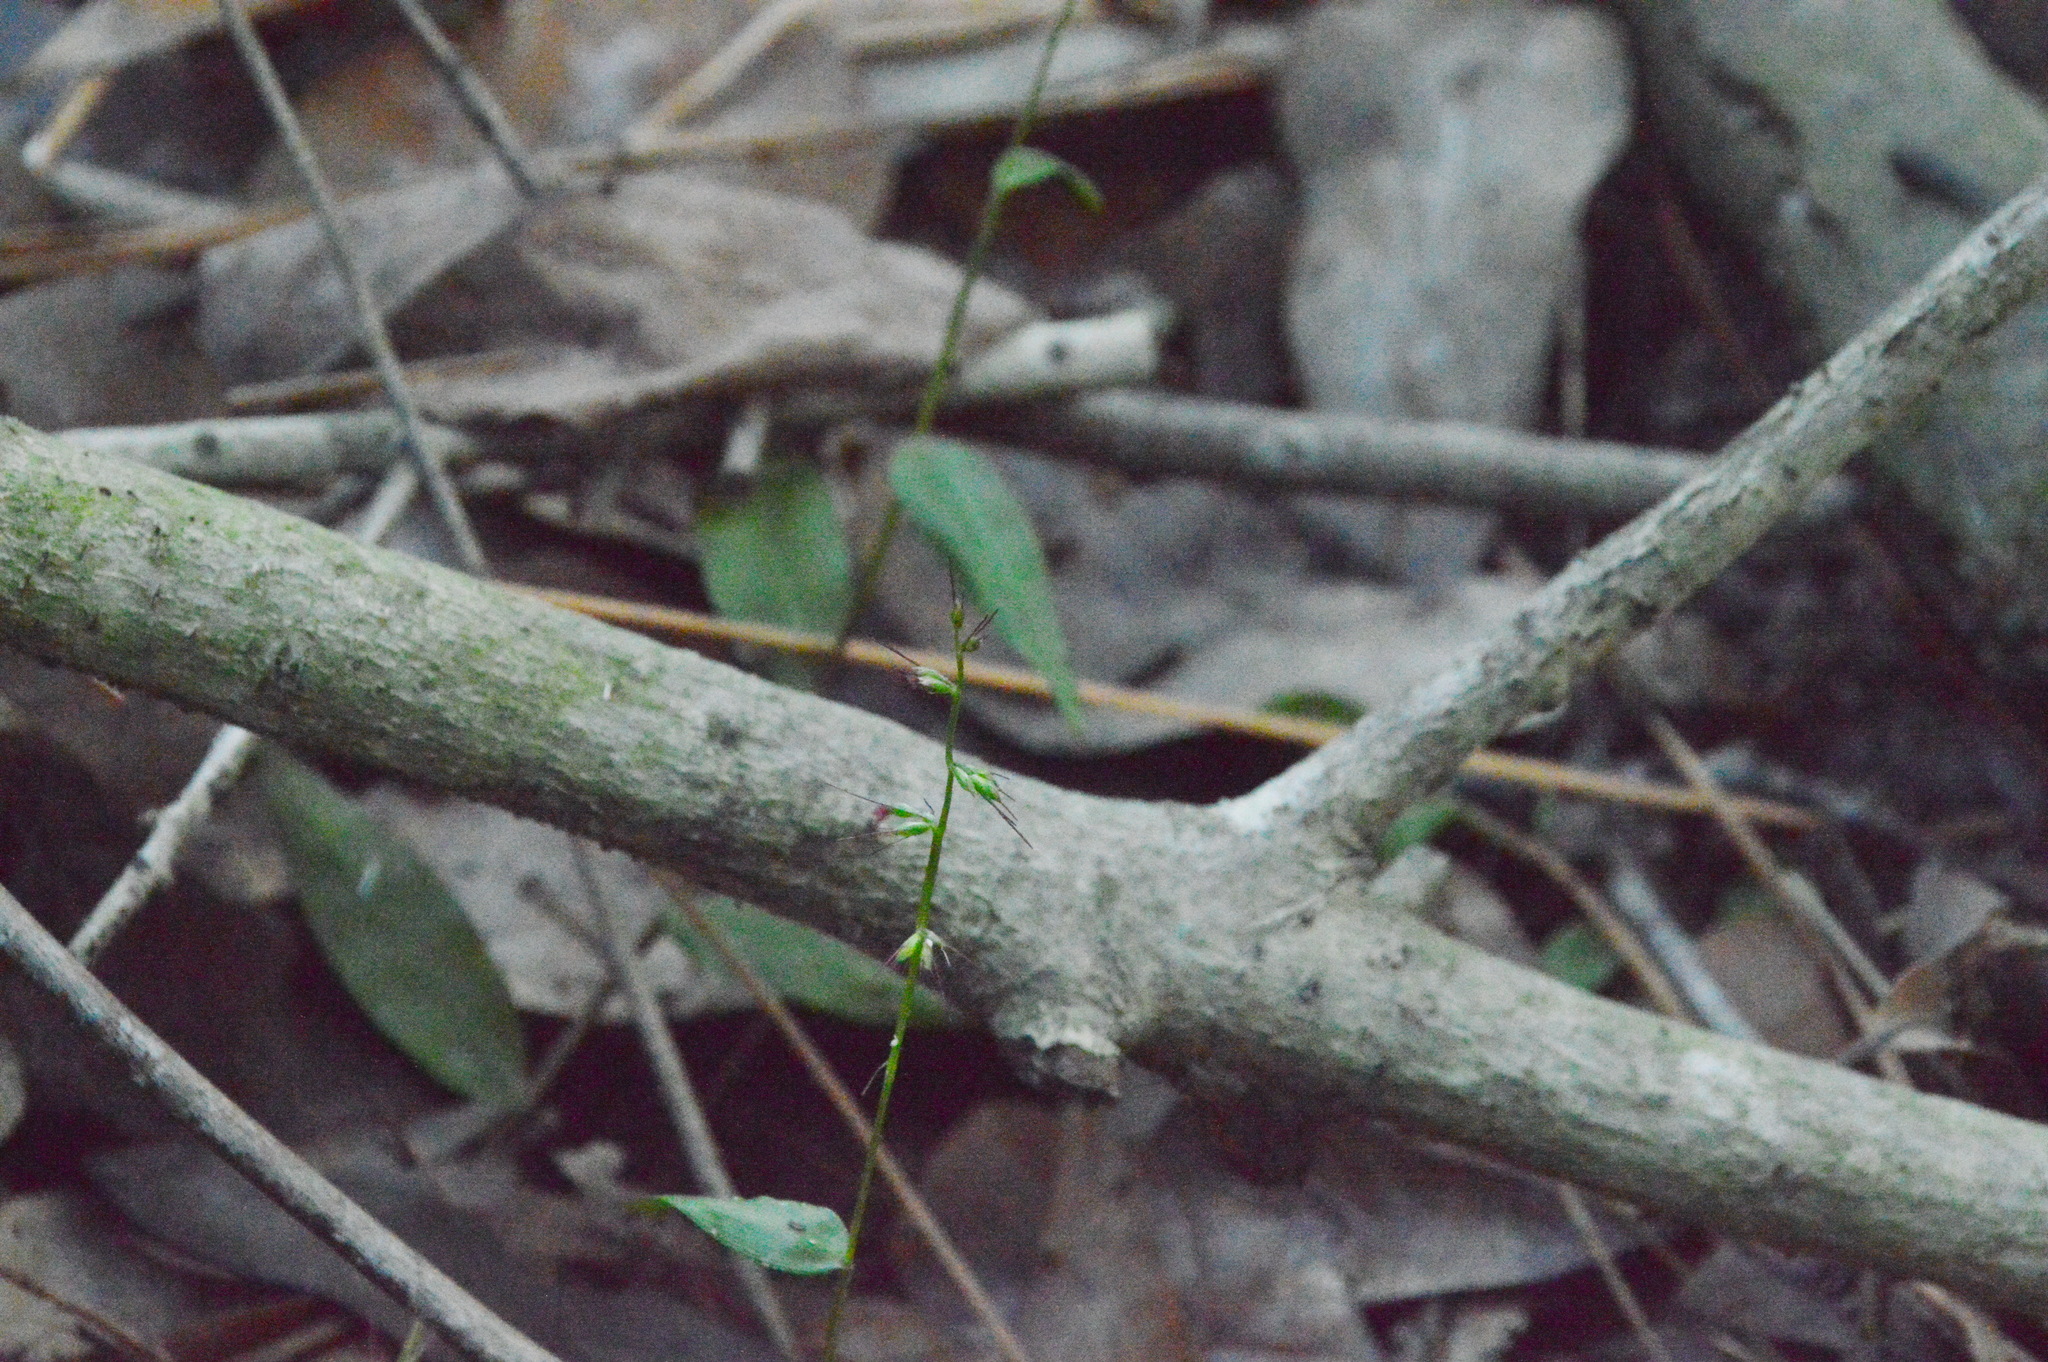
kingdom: Plantae
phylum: Tracheophyta
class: Liliopsida
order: Poales
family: Poaceae
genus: Oplismenus
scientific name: Oplismenus hirtellus
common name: Basketgrass
